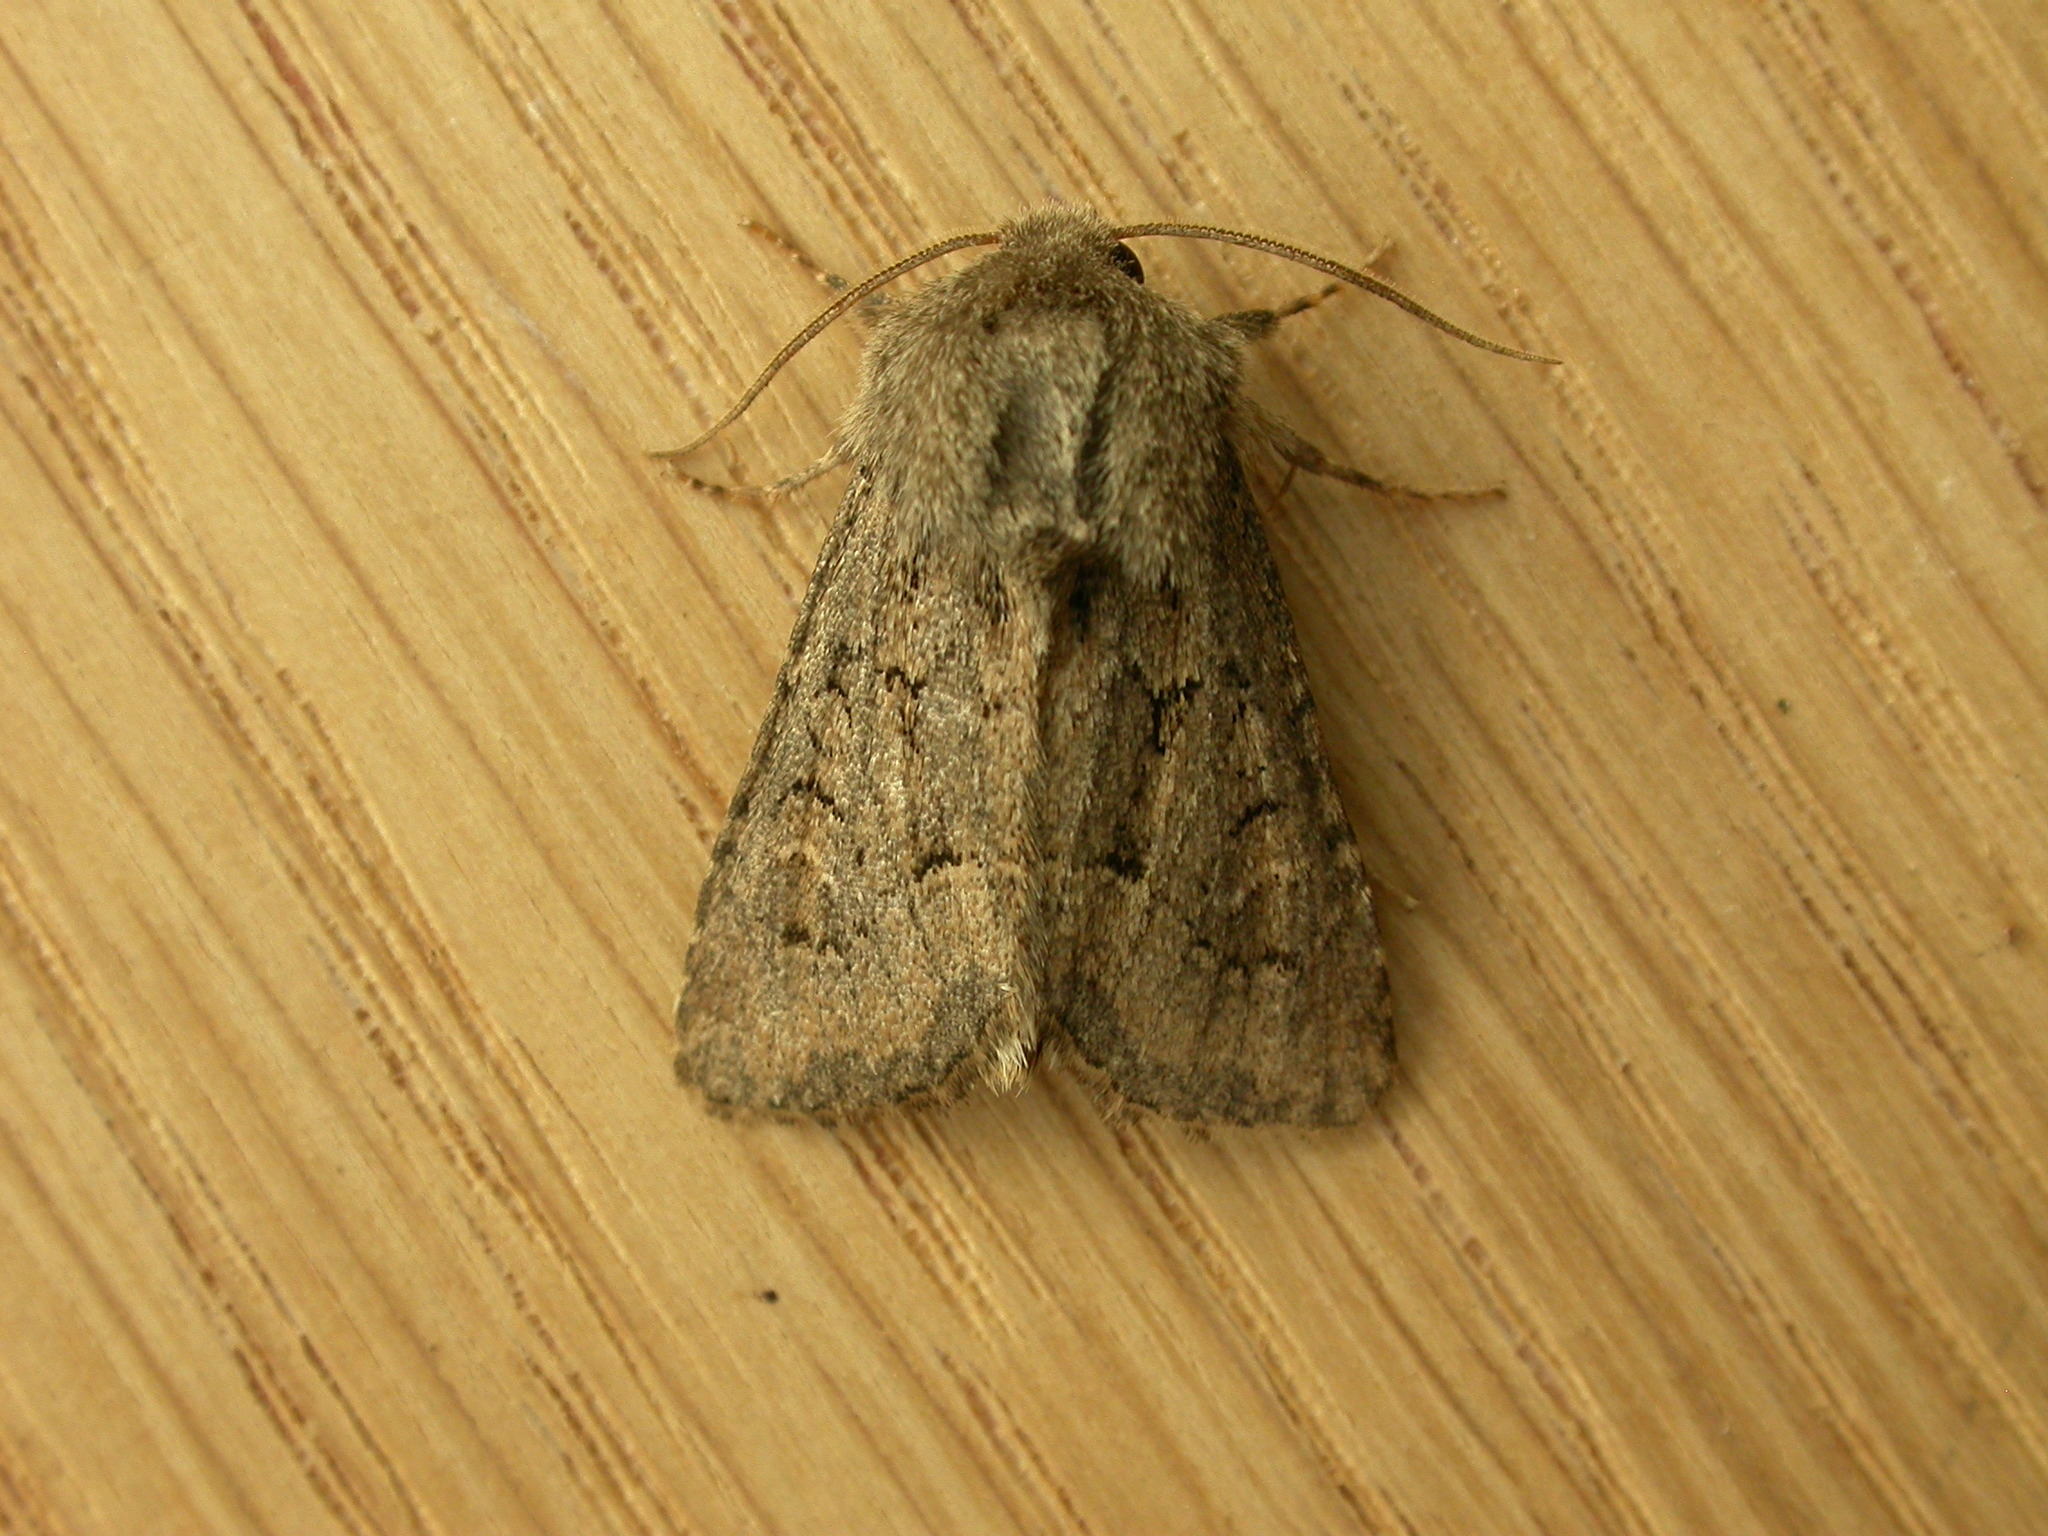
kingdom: Animalia
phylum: Arthropoda
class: Insecta
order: Lepidoptera
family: Noctuidae
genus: Luperina
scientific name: Luperina testacea
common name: Flounced rustic
